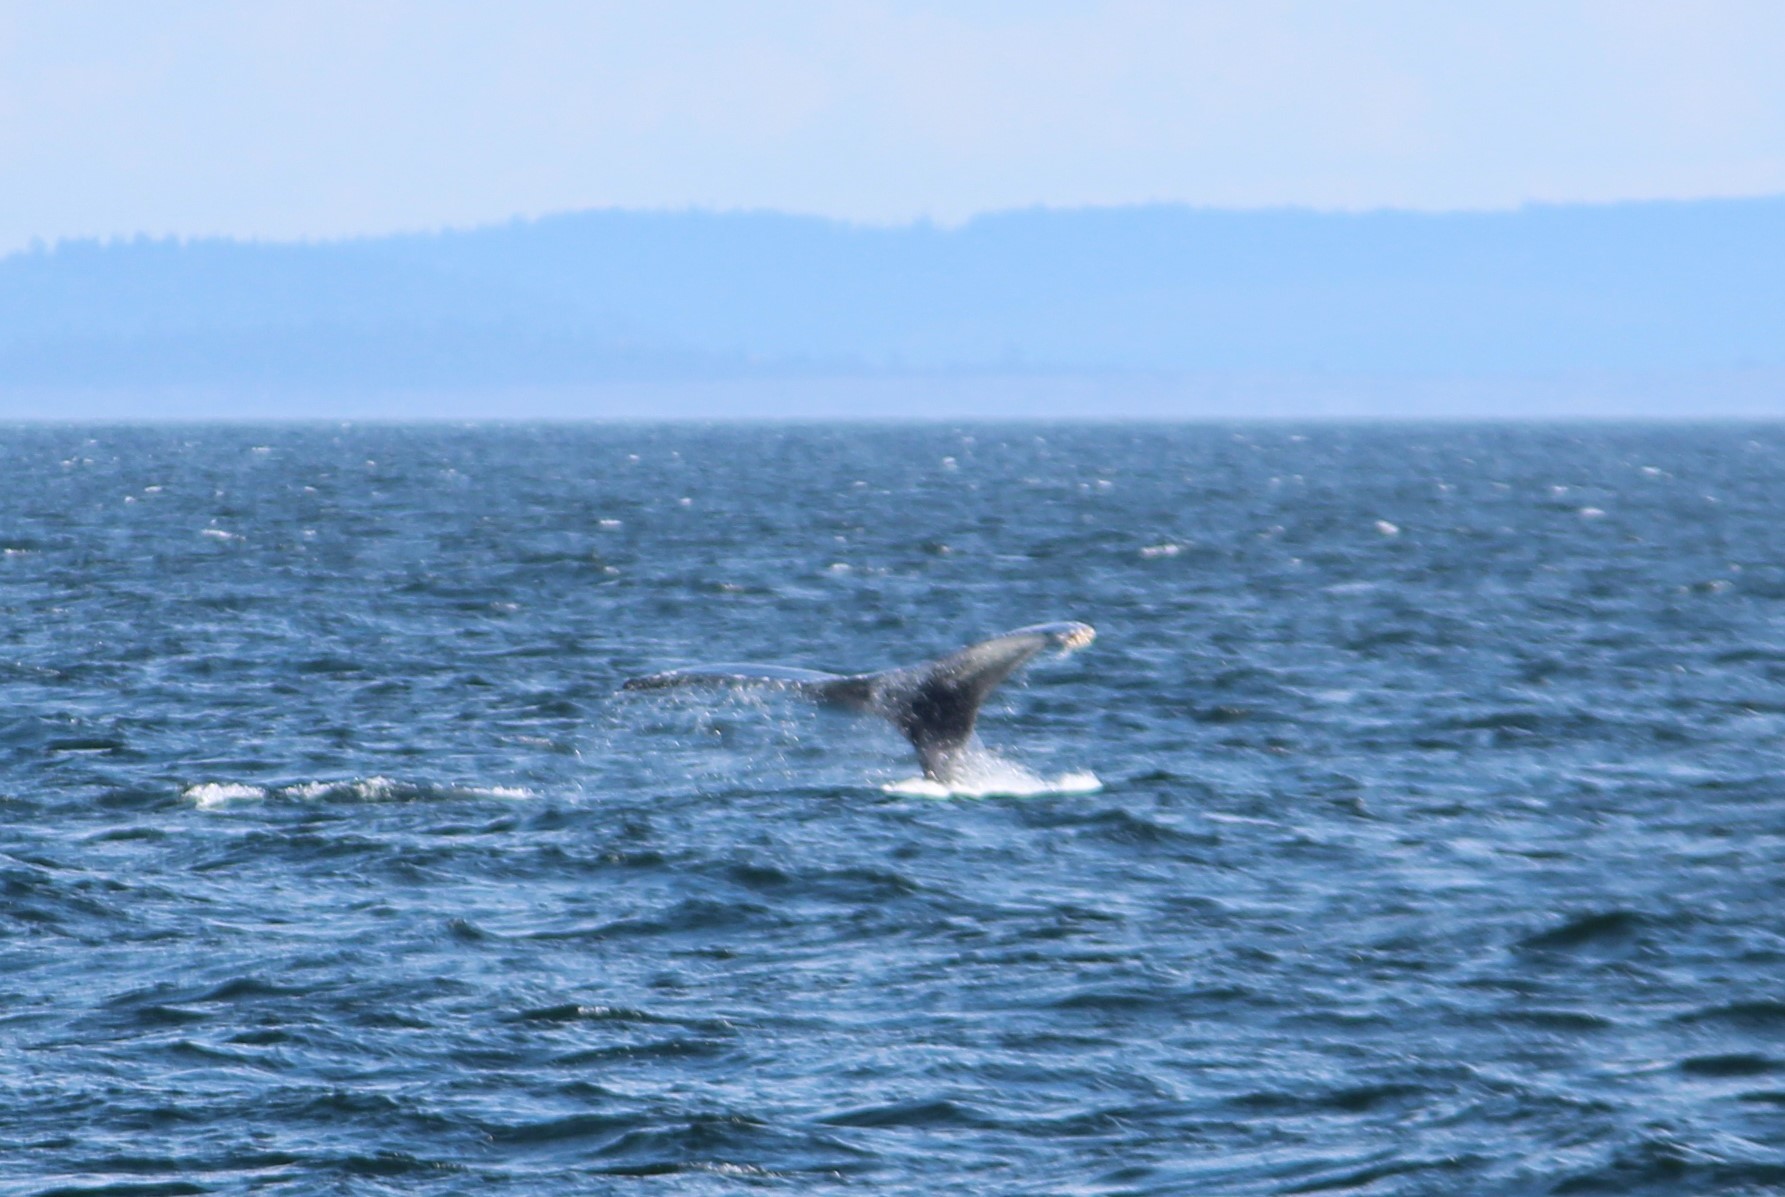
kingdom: Animalia
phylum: Chordata
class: Mammalia
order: Cetacea
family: Balaenopteridae
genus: Megaptera
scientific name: Megaptera novaeangliae
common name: Humpback whale
